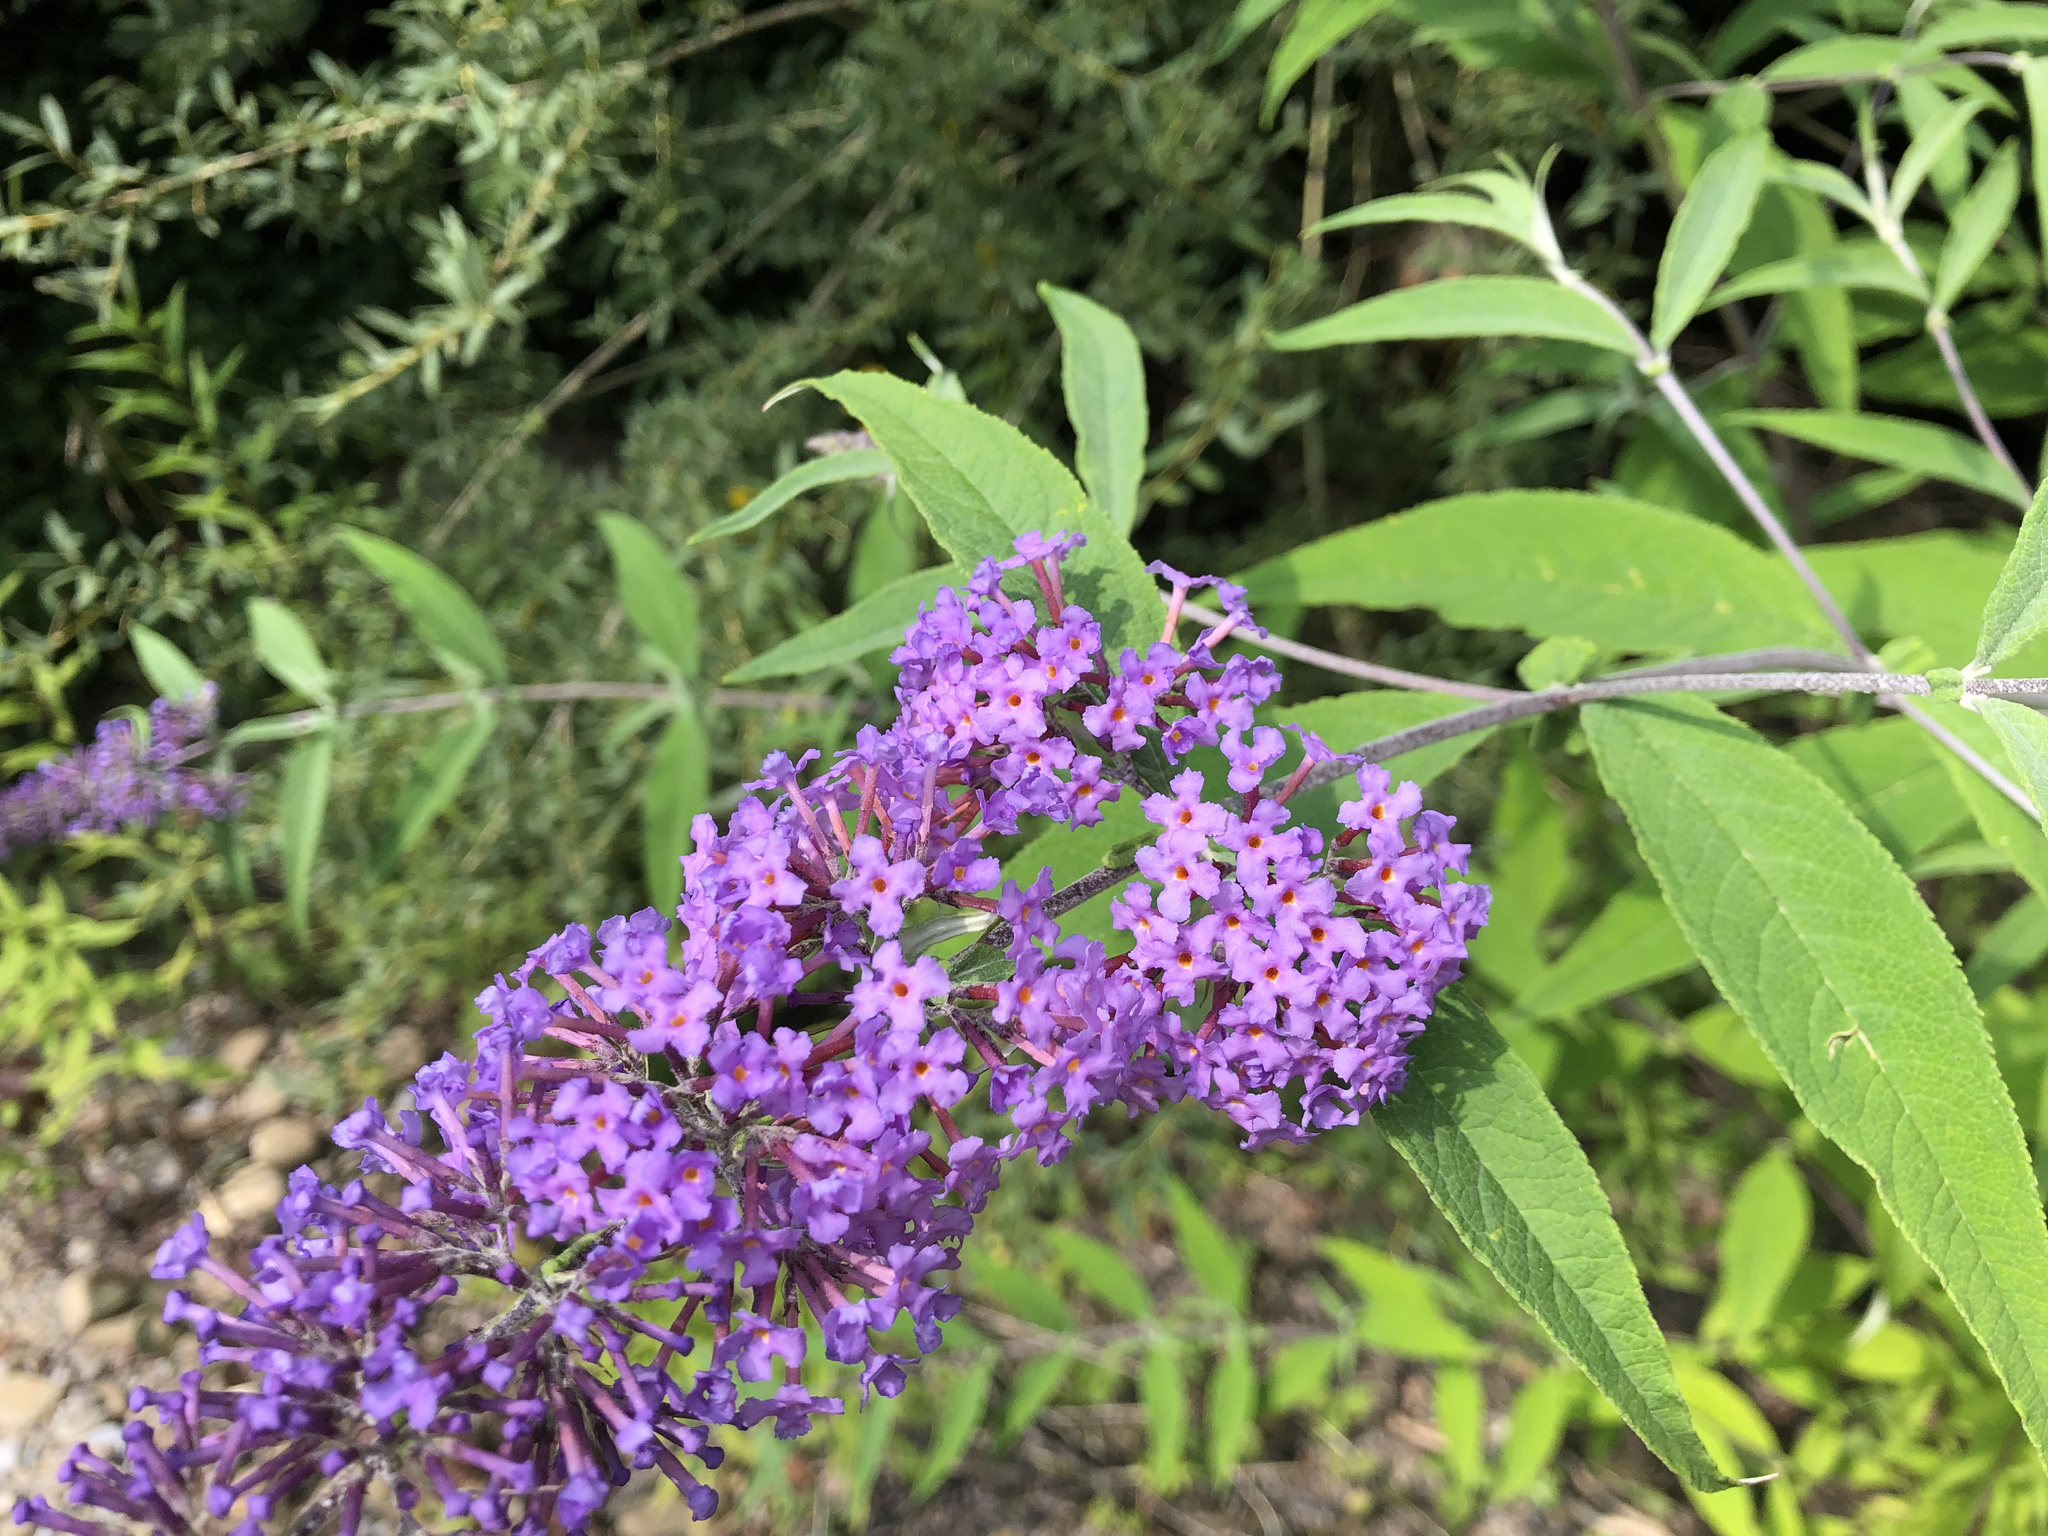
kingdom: Plantae
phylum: Tracheophyta
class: Magnoliopsida
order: Lamiales
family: Scrophulariaceae
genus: Buddleja
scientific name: Buddleja davidii
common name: Butterfly-bush
